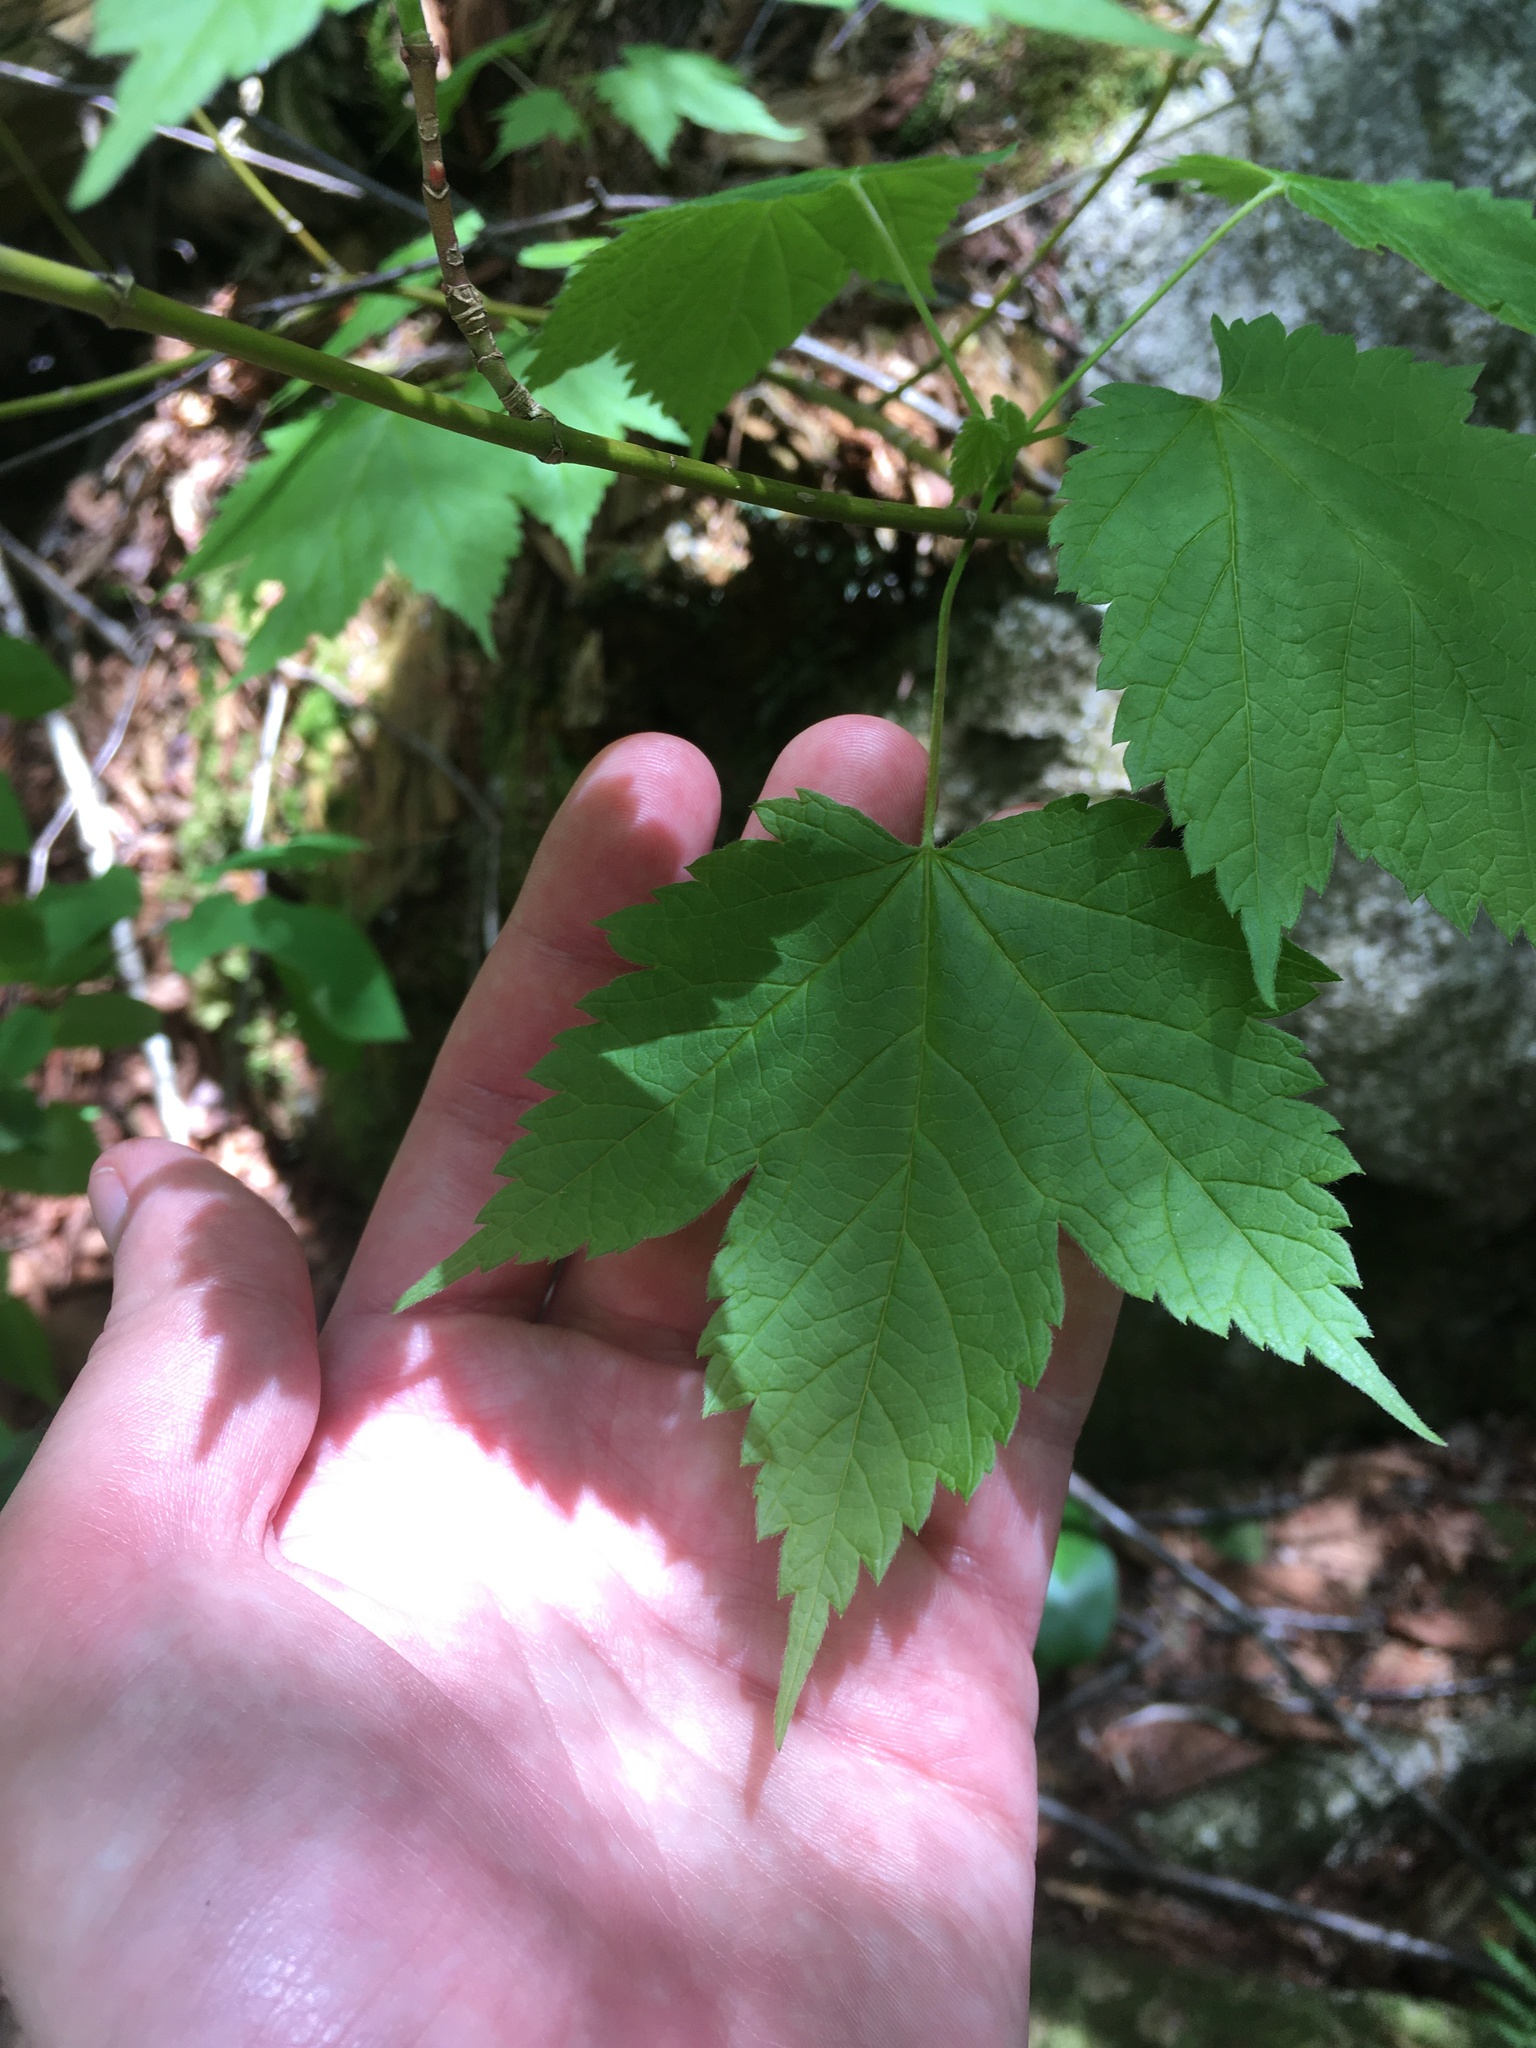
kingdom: Plantae
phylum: Tracheophyta
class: Magnoliopsida
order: Sapindales
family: Sapindaceae
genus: Acer
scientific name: Acer spicatum
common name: Mountain maple
